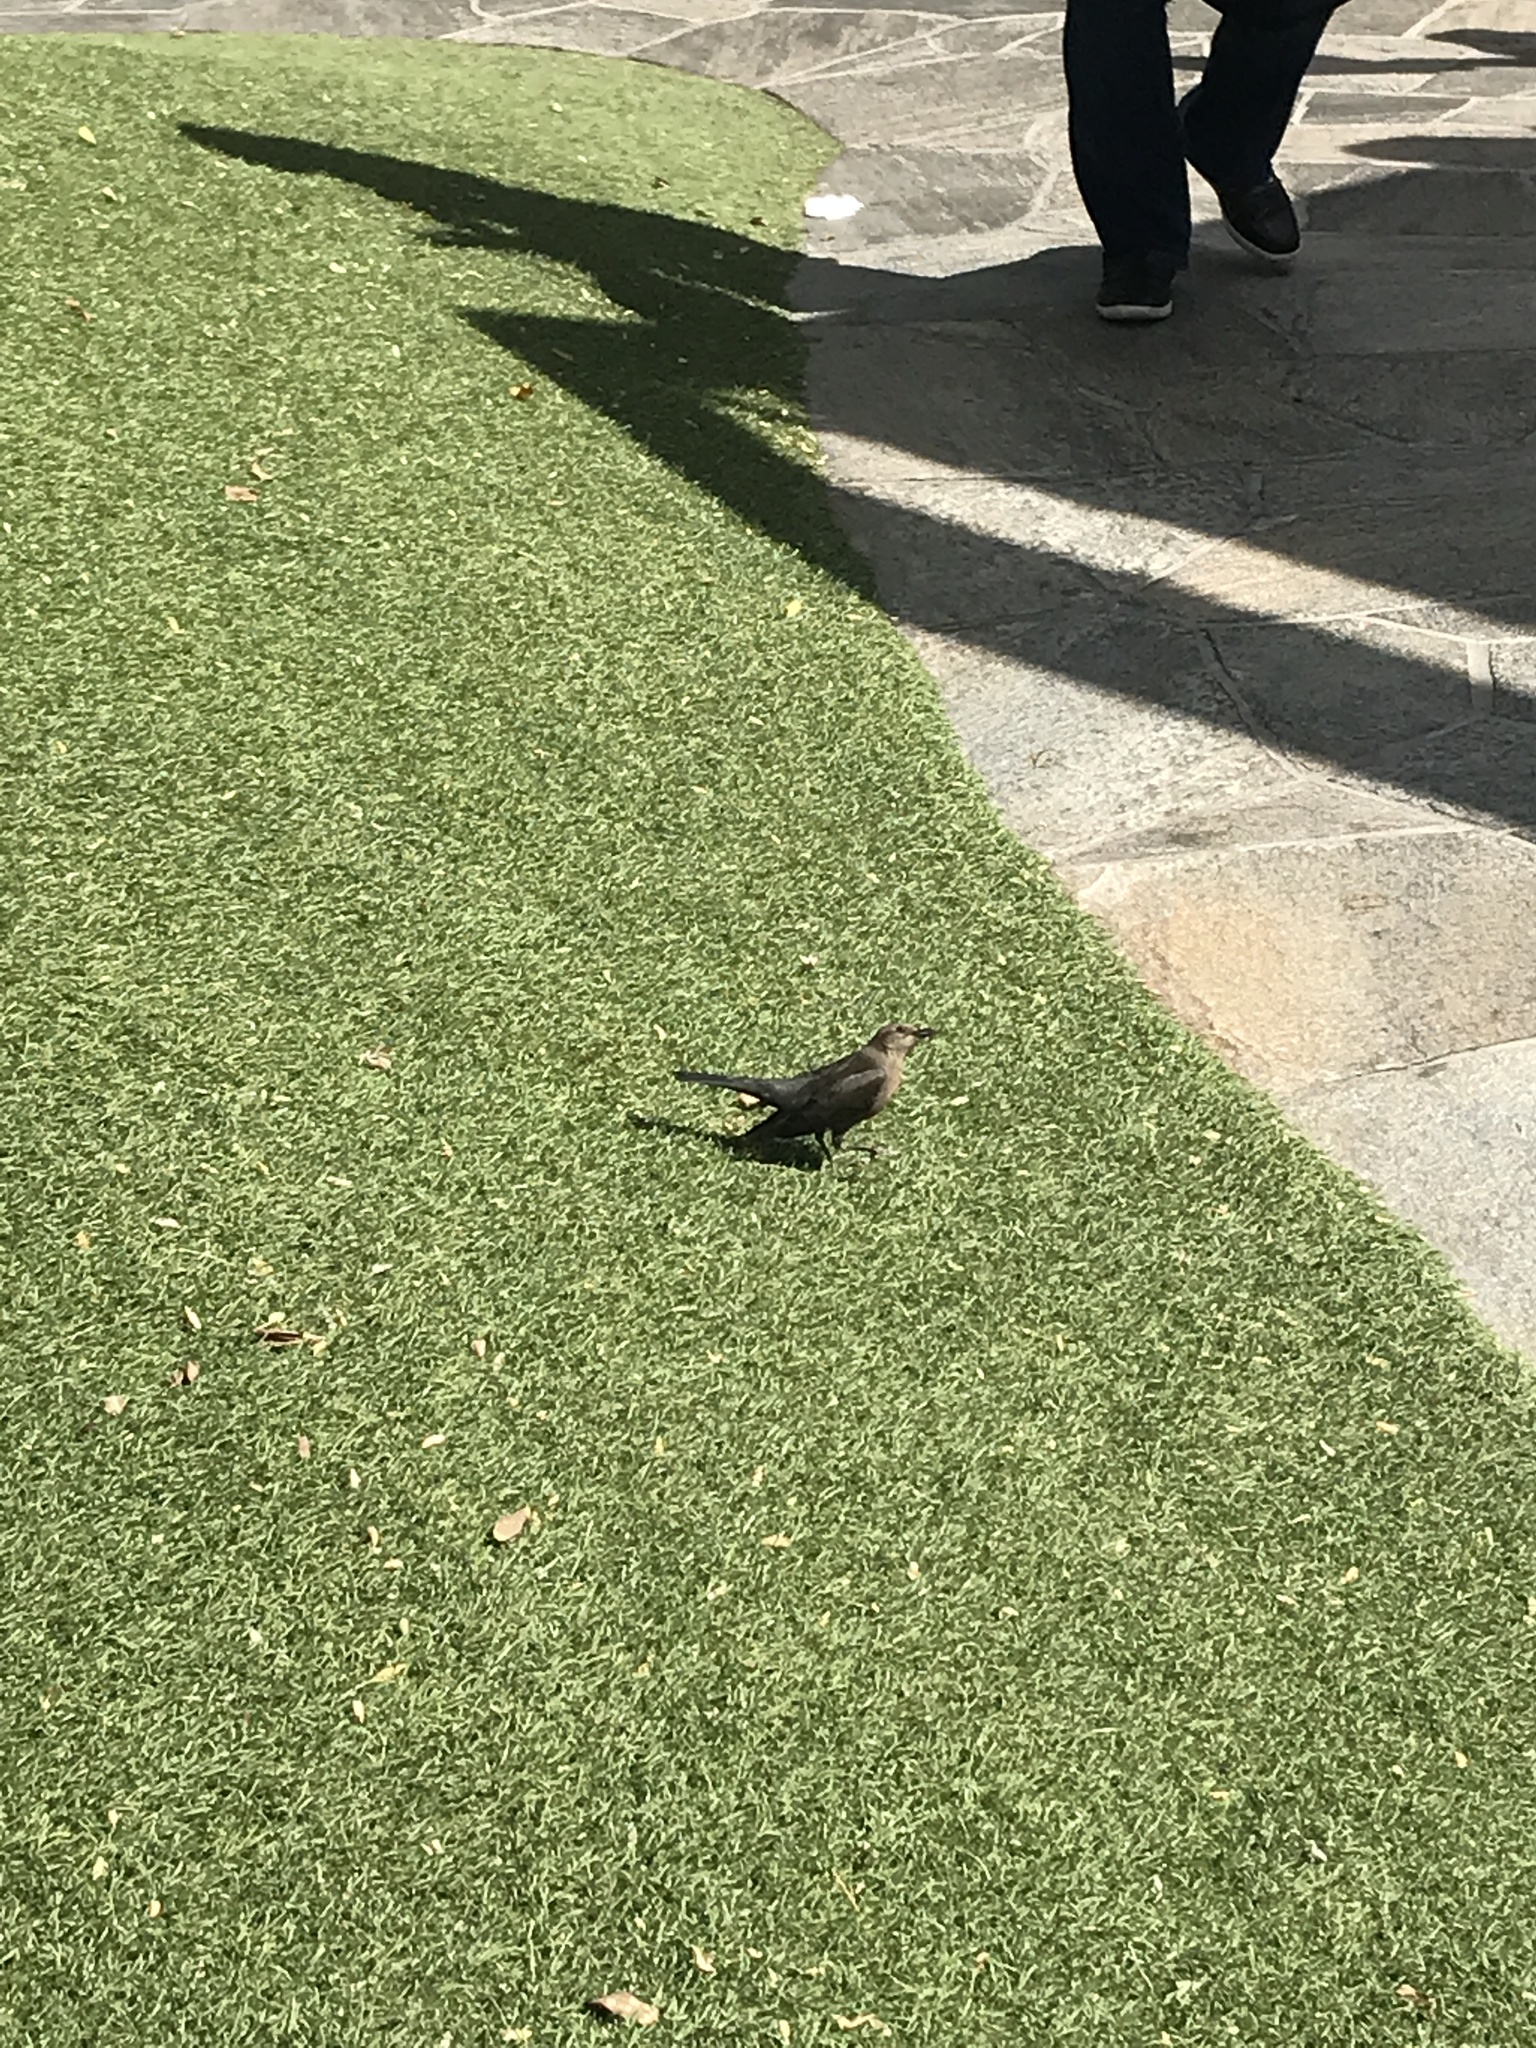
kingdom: Animalia
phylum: Chordata
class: Aves
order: Passeriformes
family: Icteridae
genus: Euphagus
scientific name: Euphagus cyanocephalus
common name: Brewer's blackbird
